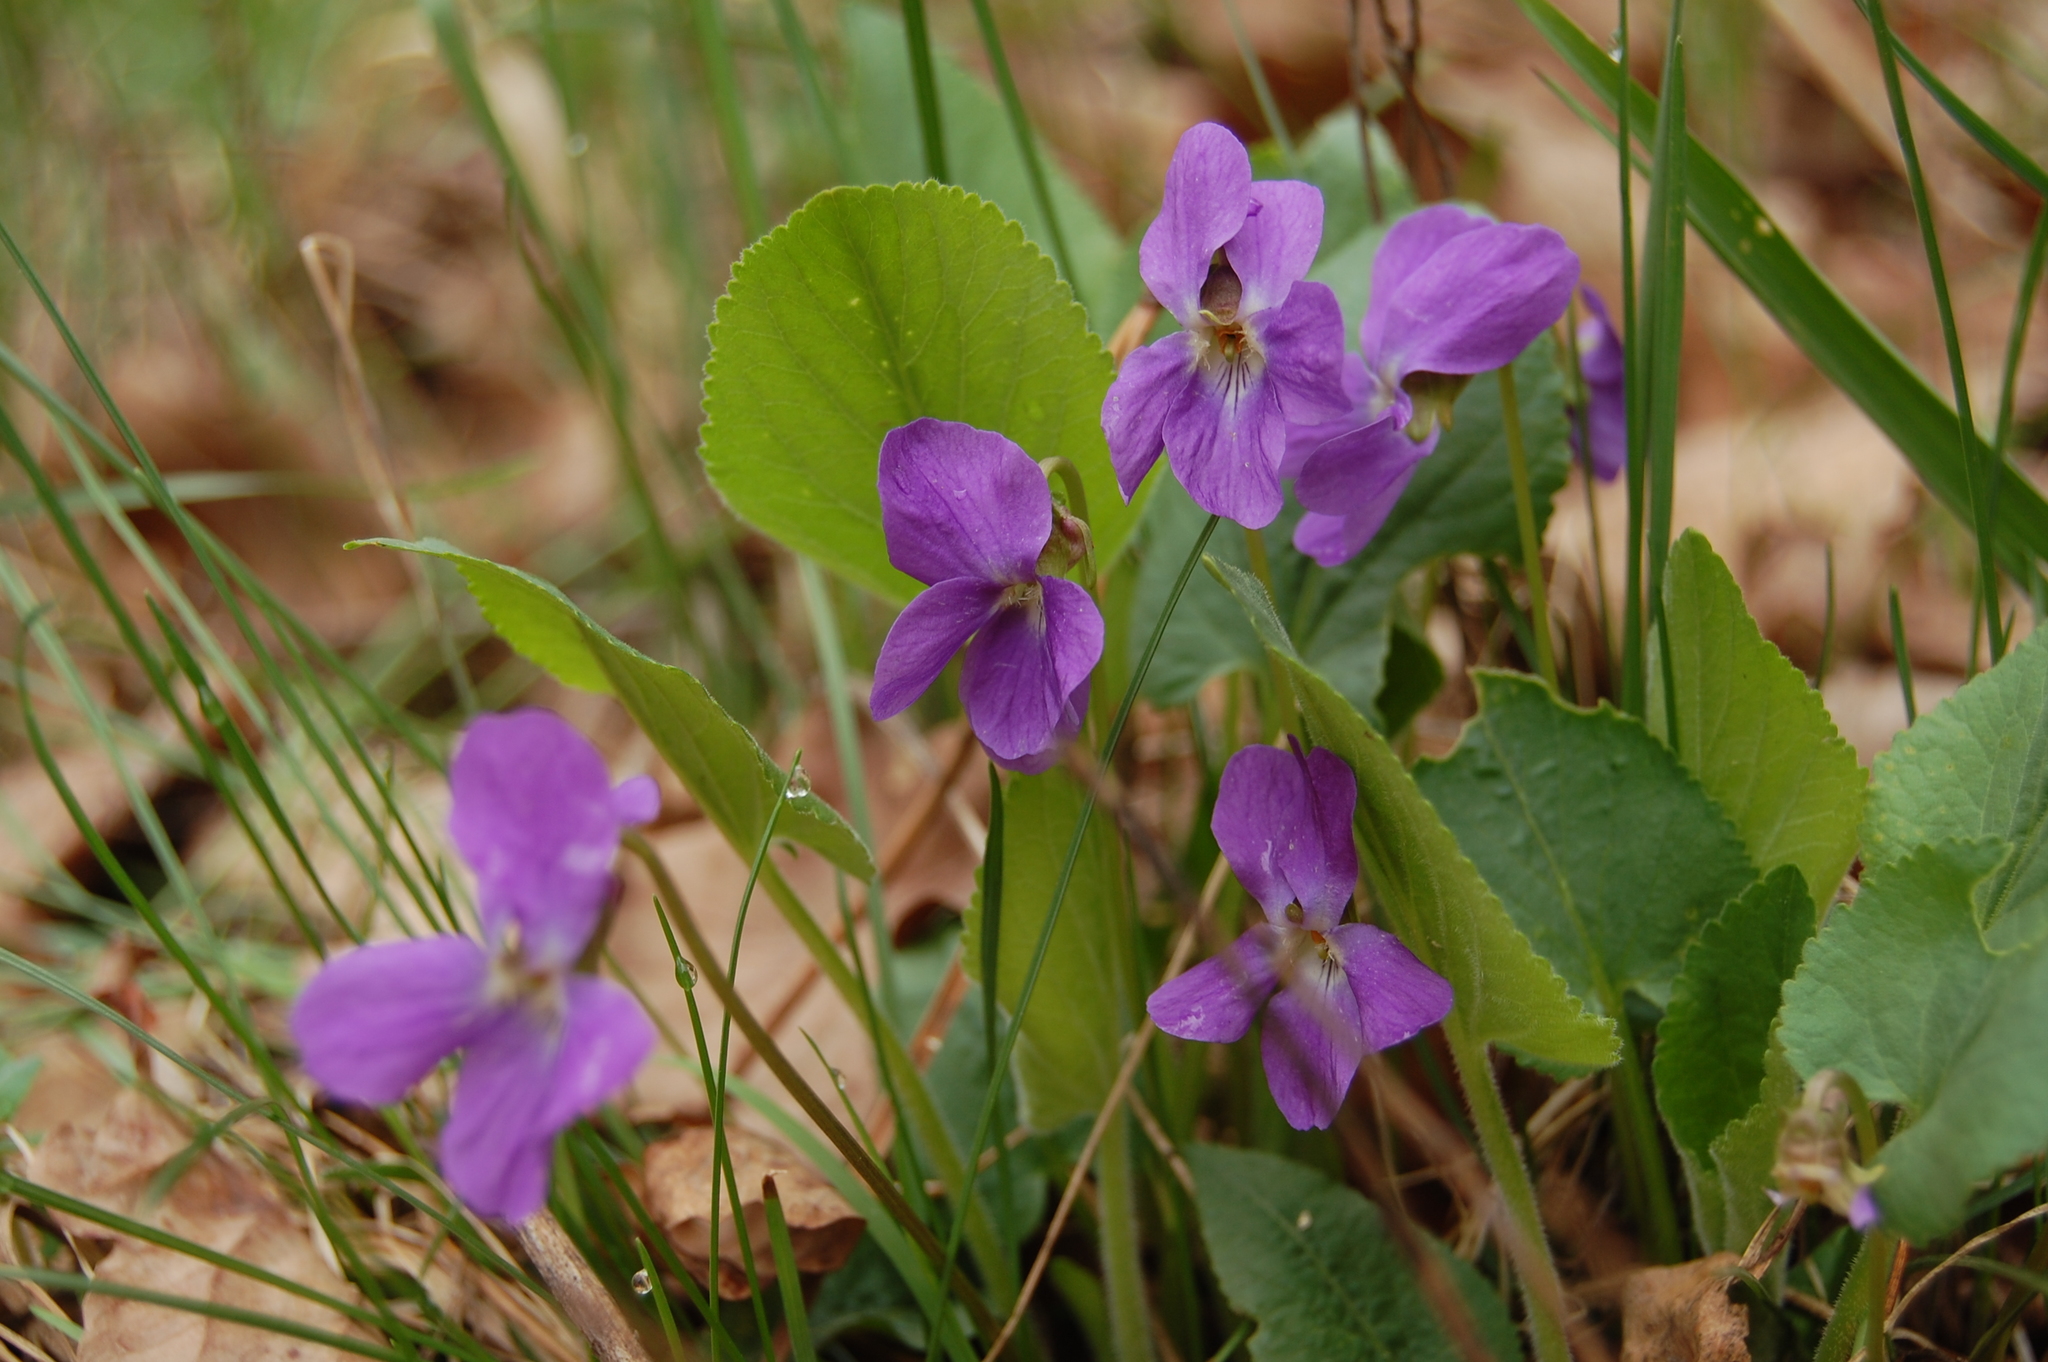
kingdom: Plantae
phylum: Tracheophyta
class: Magnoliopsida
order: Malpighiales
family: Violaceae
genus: Viola
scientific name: Viola hirta
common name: Hairy violet
